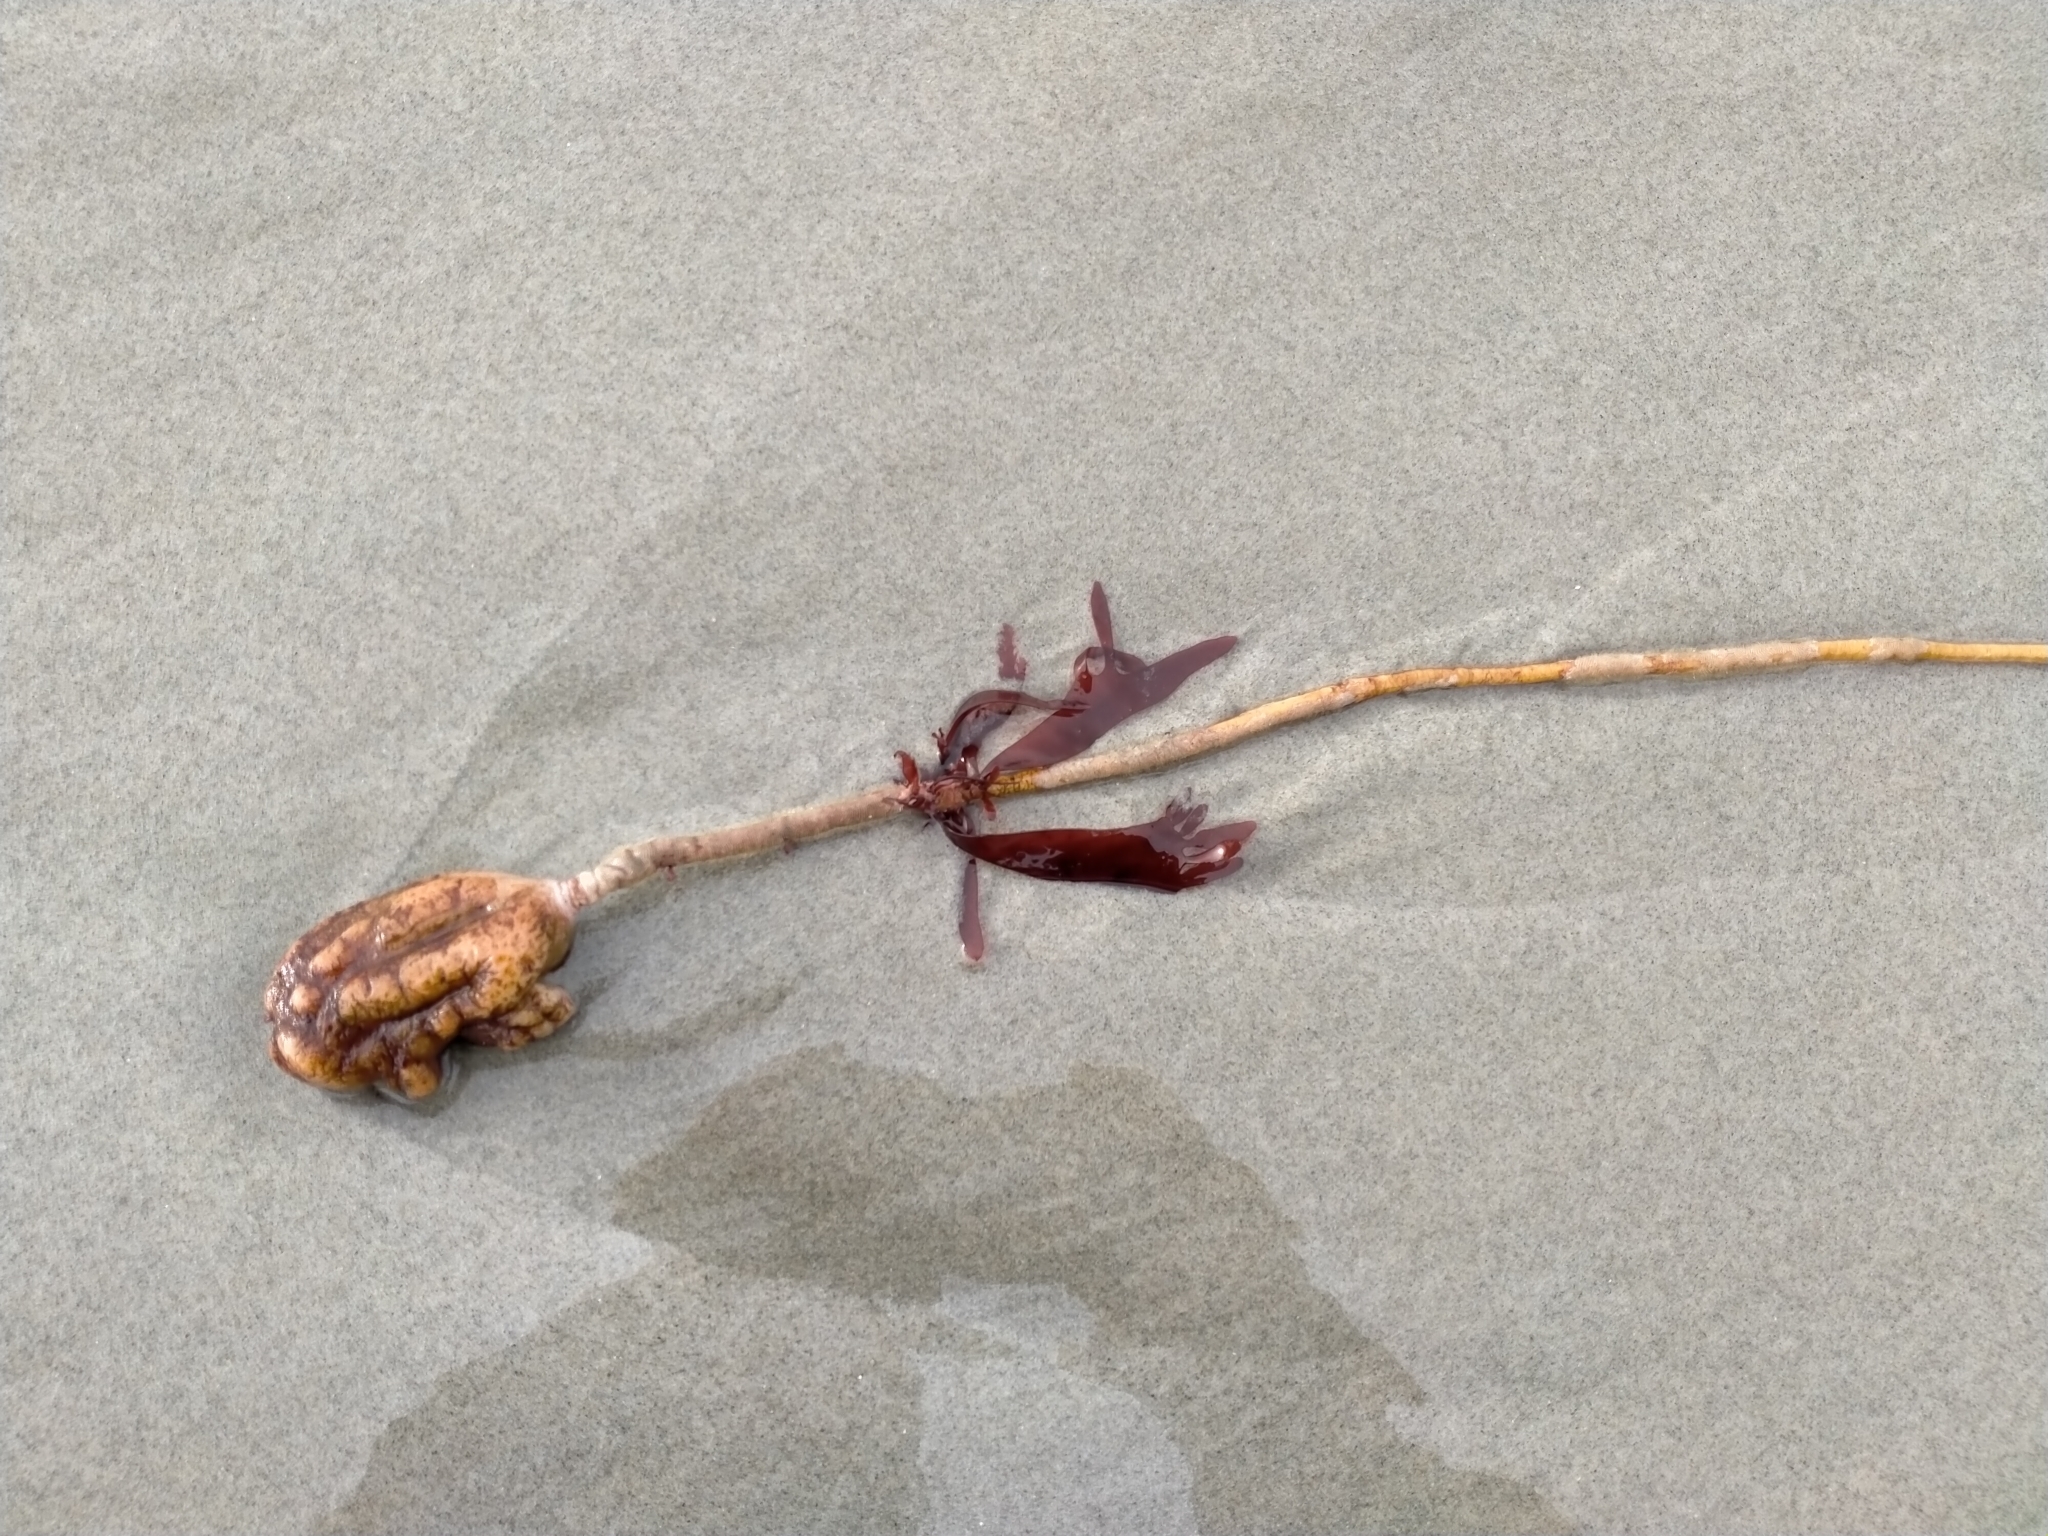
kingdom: Animalia
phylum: Chordata
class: Ascidiacea
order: Stolidobranchia
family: Pyuridae
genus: Pyura
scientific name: Pyura pachydermatina
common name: Sea tulip
